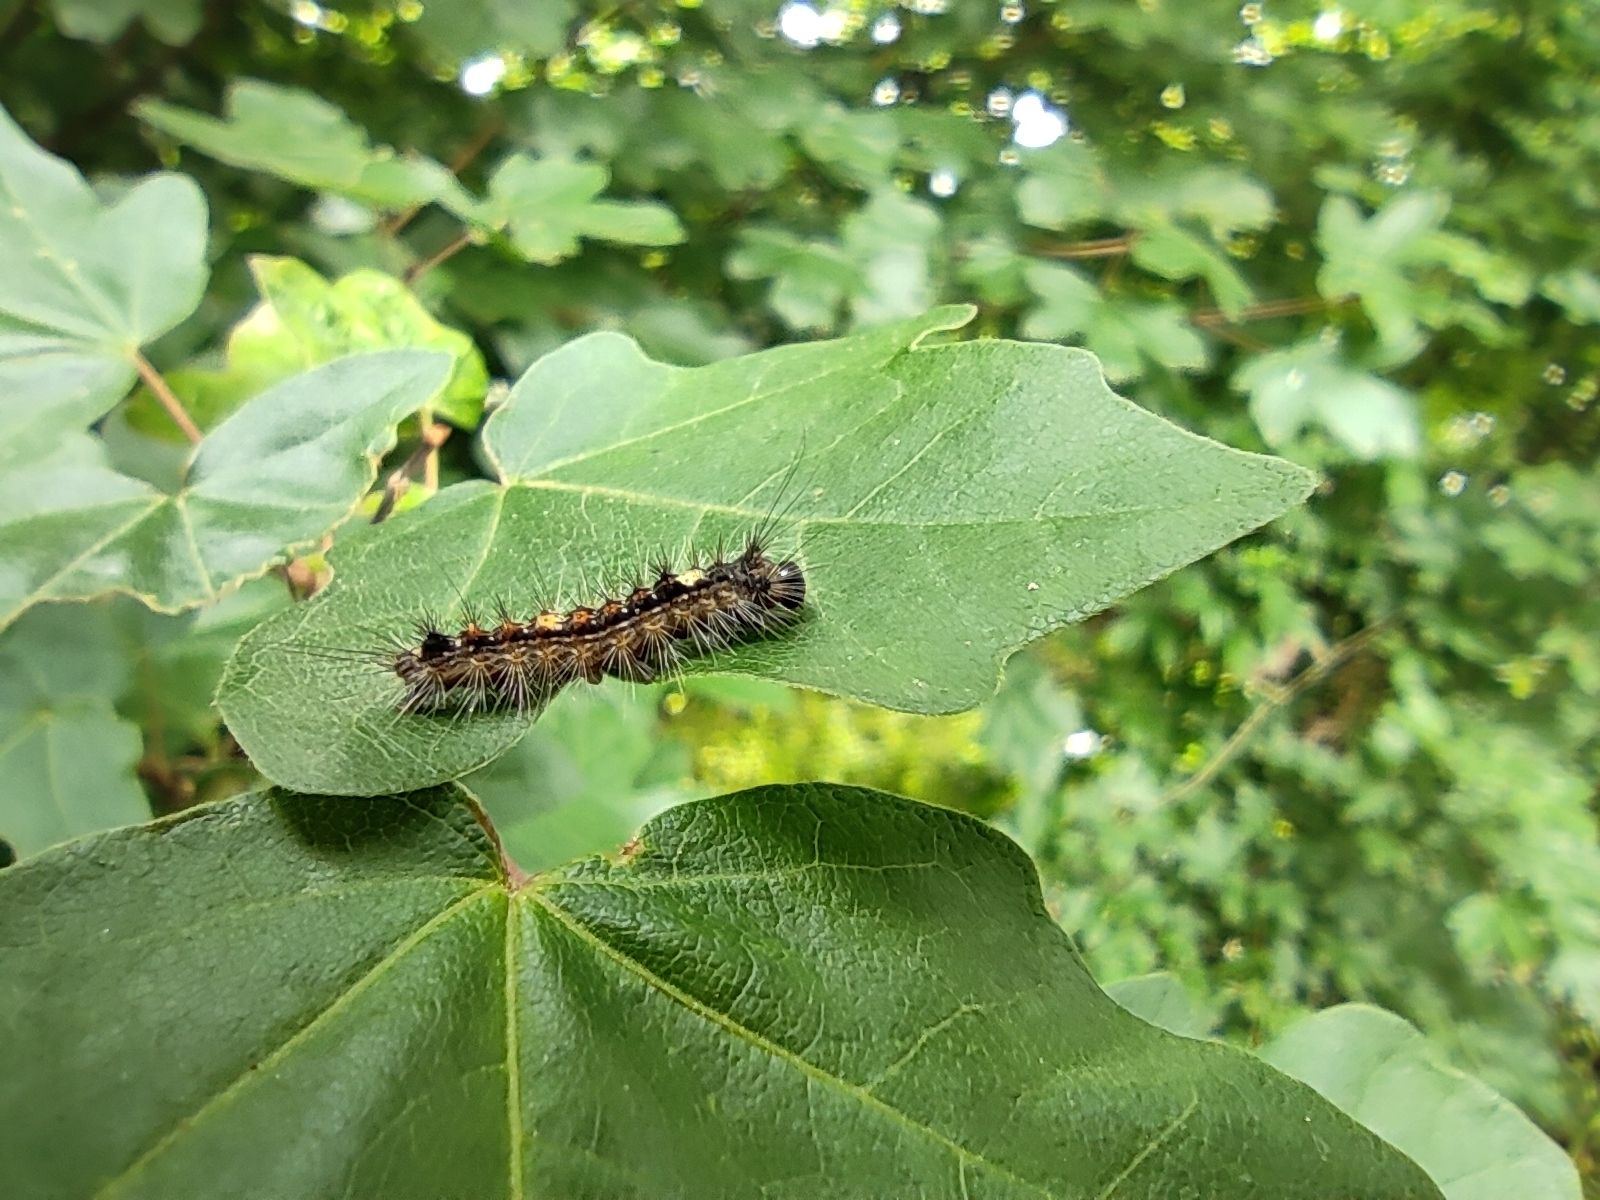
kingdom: Animalia
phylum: Arthropoda
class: Insecta
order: Lepidoptera
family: Erebidae
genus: Lymantria
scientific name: Lymantria dispar
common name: Gypsy moth
